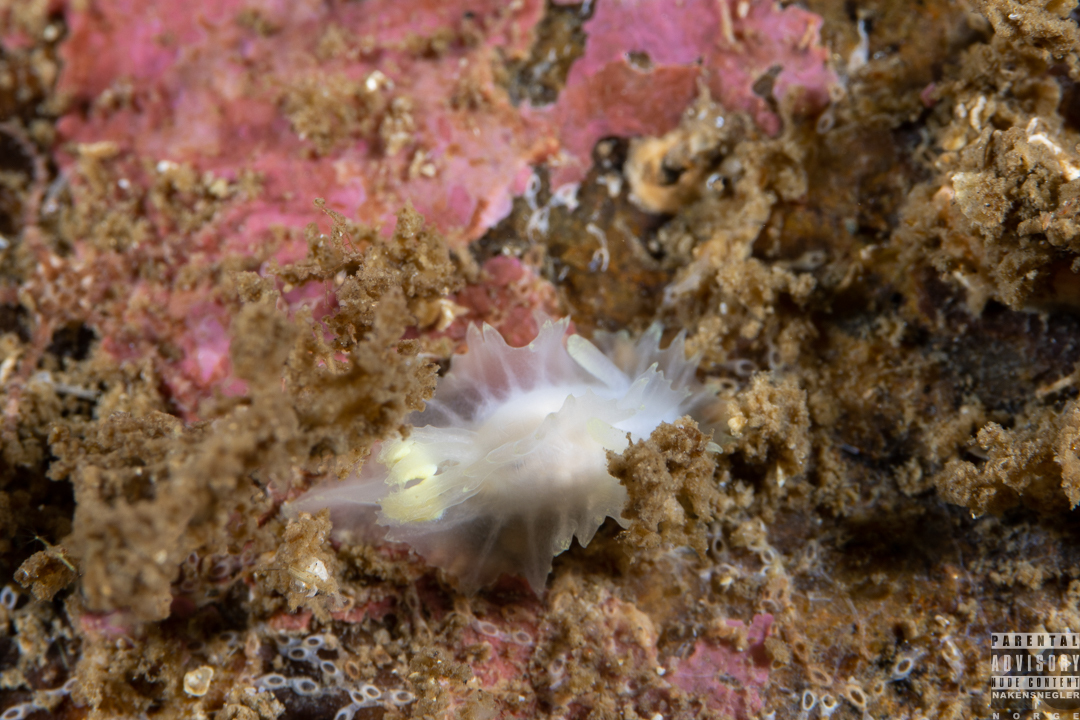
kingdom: Animalia
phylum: Mollusca
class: Gastropoda
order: Nudibranchia
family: Goniodorididae
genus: Lophodoris
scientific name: Lophodoris danielsseni
